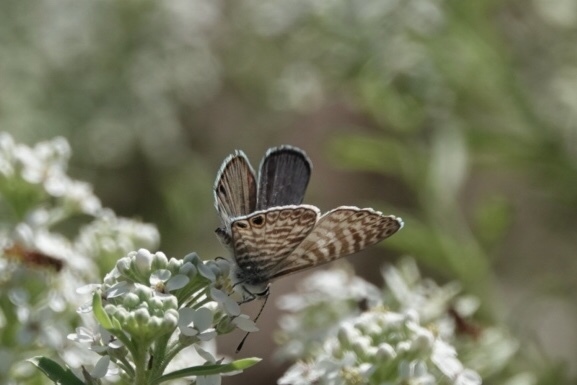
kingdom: Animalia
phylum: Arthropoda
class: Insecta
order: Lepidoptera
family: Lycaenidae
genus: Leptotes
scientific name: Leptotes marina
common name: Marine blue
